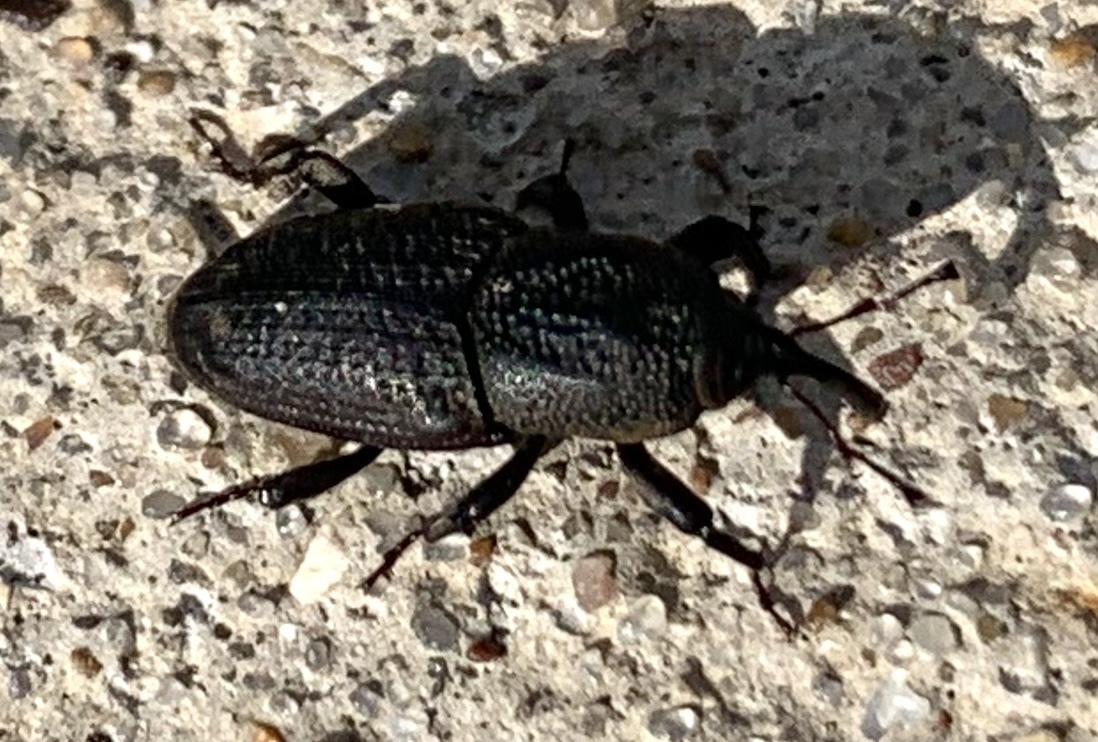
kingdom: Animalia
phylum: Arthropoda
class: Insecta
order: Coleoptera
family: Dryophthoridae
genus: Sphenophorus
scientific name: Sphenophorus venatus
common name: Hunting billbug
